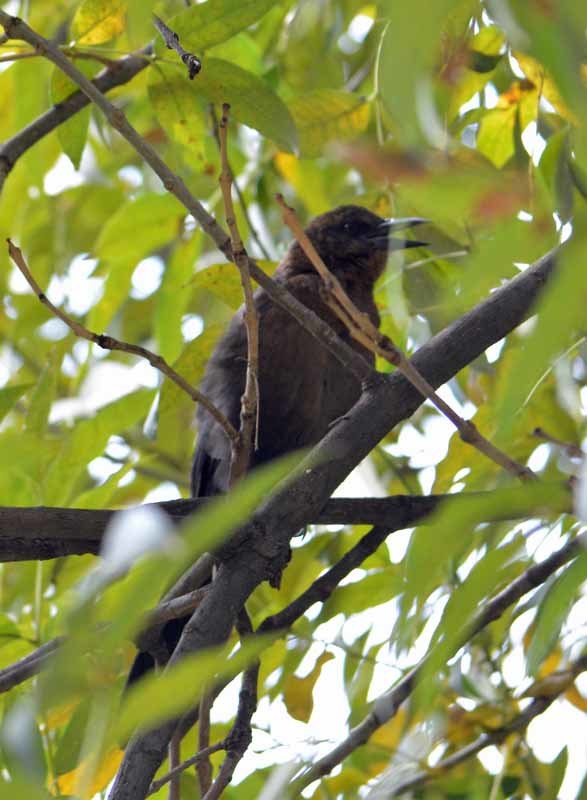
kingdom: Animalia
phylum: Chordata
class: Aves
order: Passeriformes
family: Icteridae
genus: Quiscalus
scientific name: Quiscalus mexicanus
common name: Great-tailed grackle
